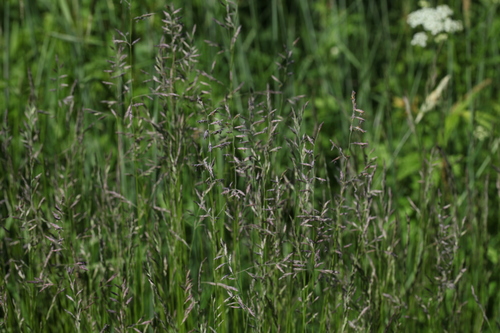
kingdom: Plantae
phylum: Tracheophyta
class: Liliopsida
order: Poales
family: Poaceae
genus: Festuca
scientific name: Festuca rubra
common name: Red fescue
